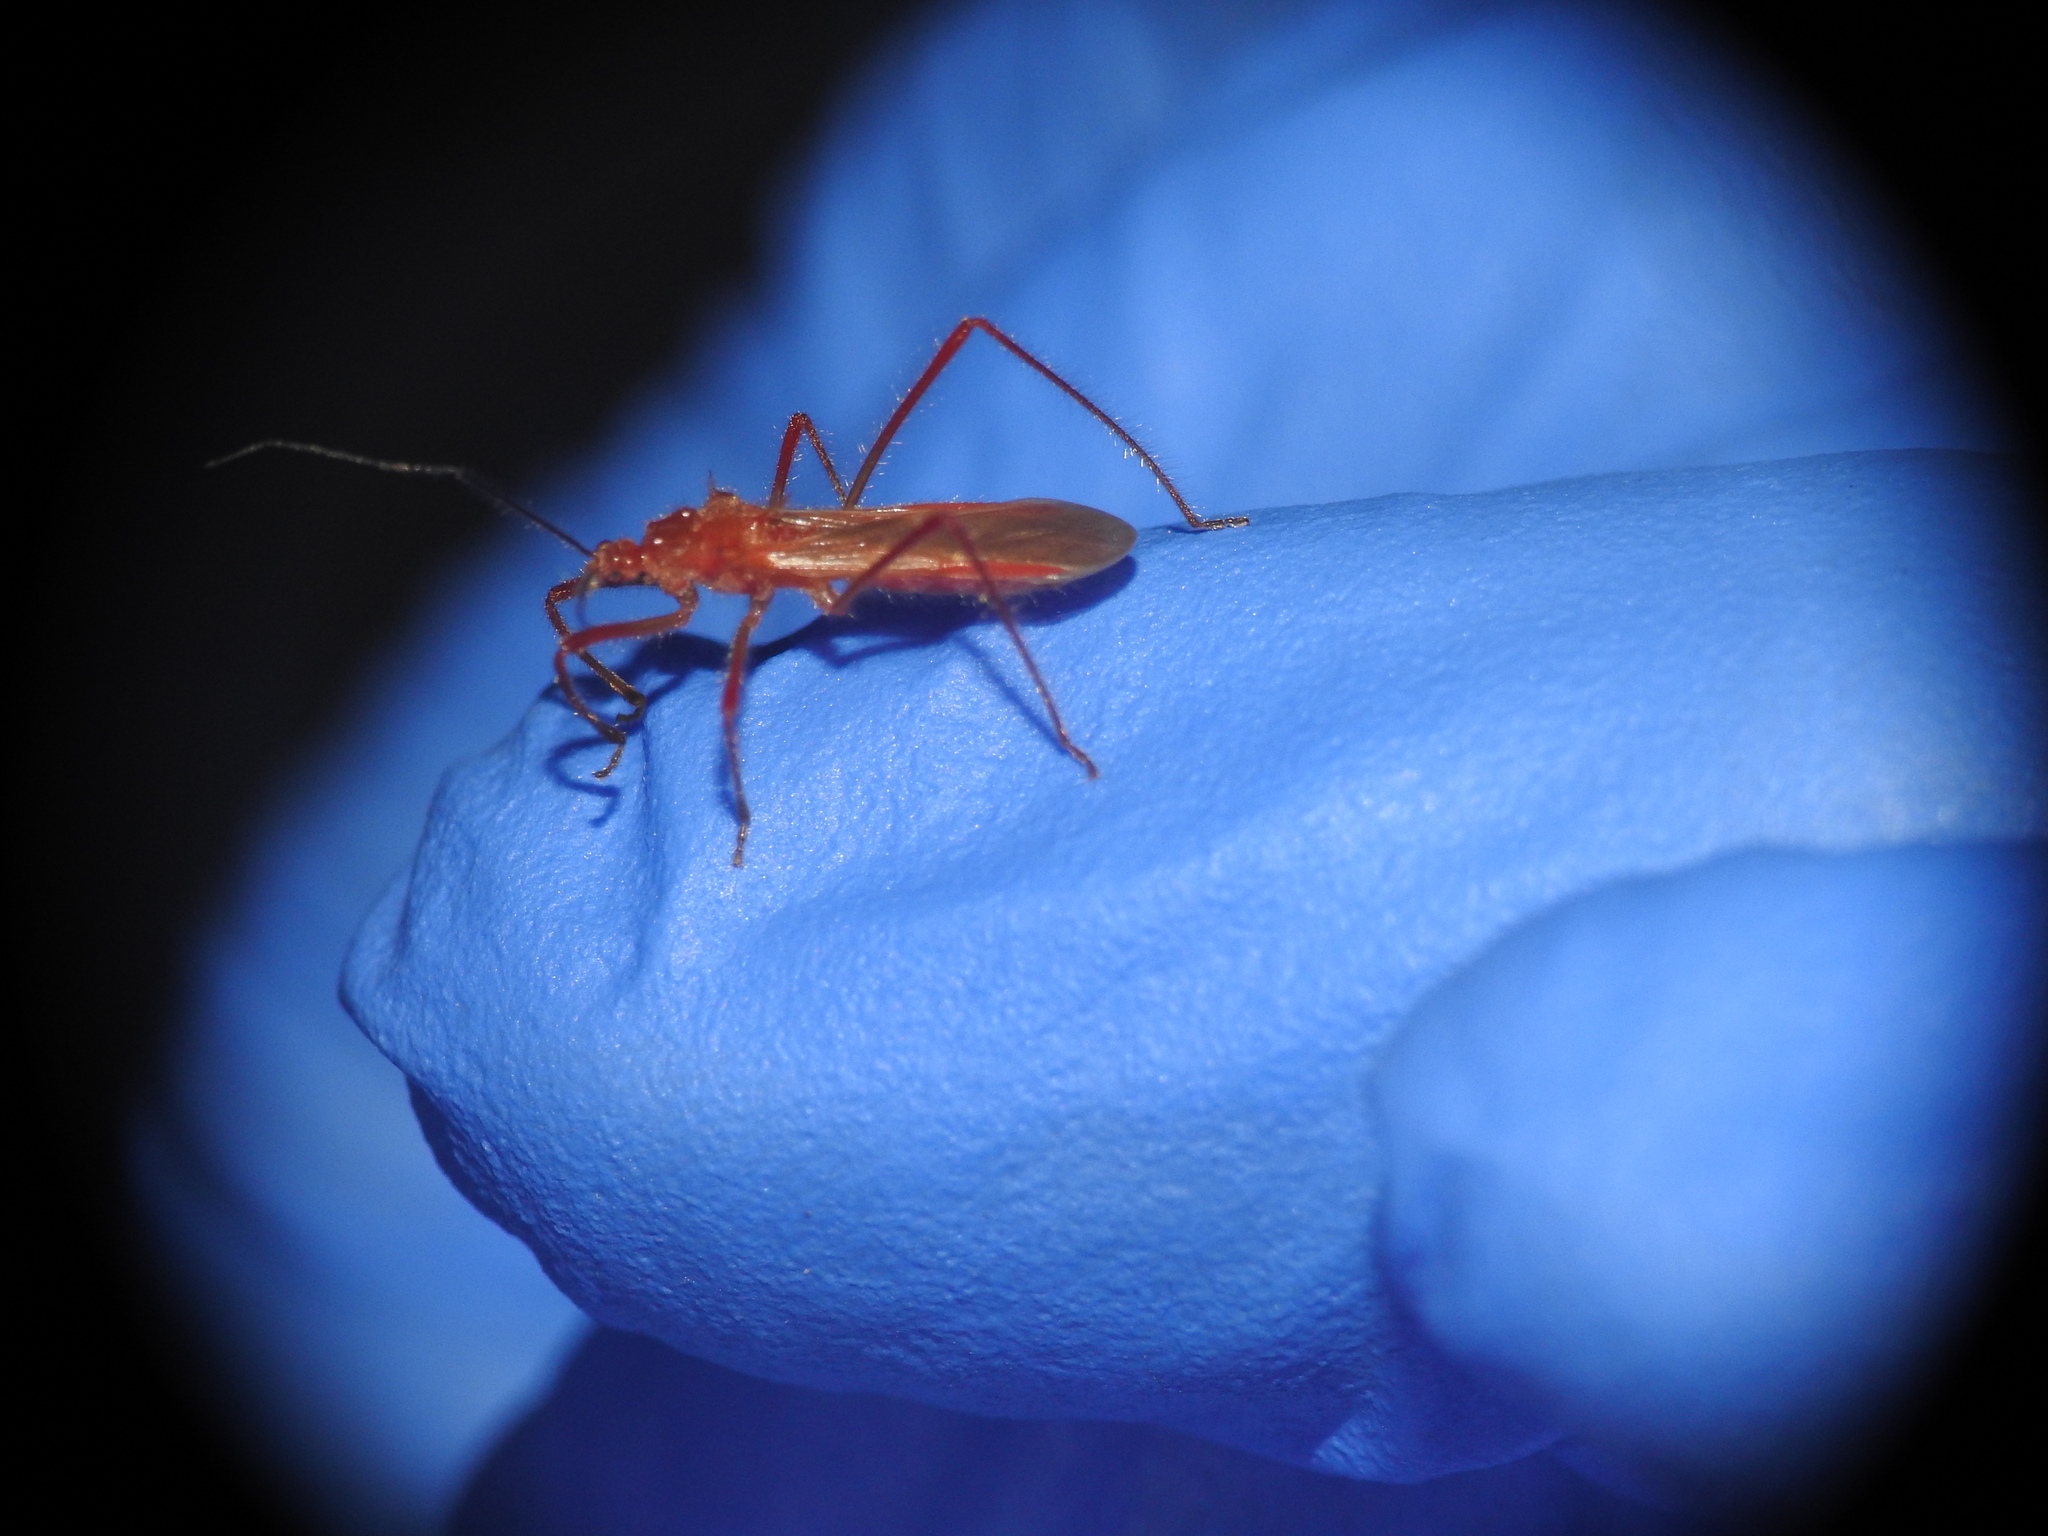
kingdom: Animalia
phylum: Arthropoda
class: Insecta
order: Hemiptera
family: Reduviidae
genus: Polytoxus
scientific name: Polytoxus sanguineus
